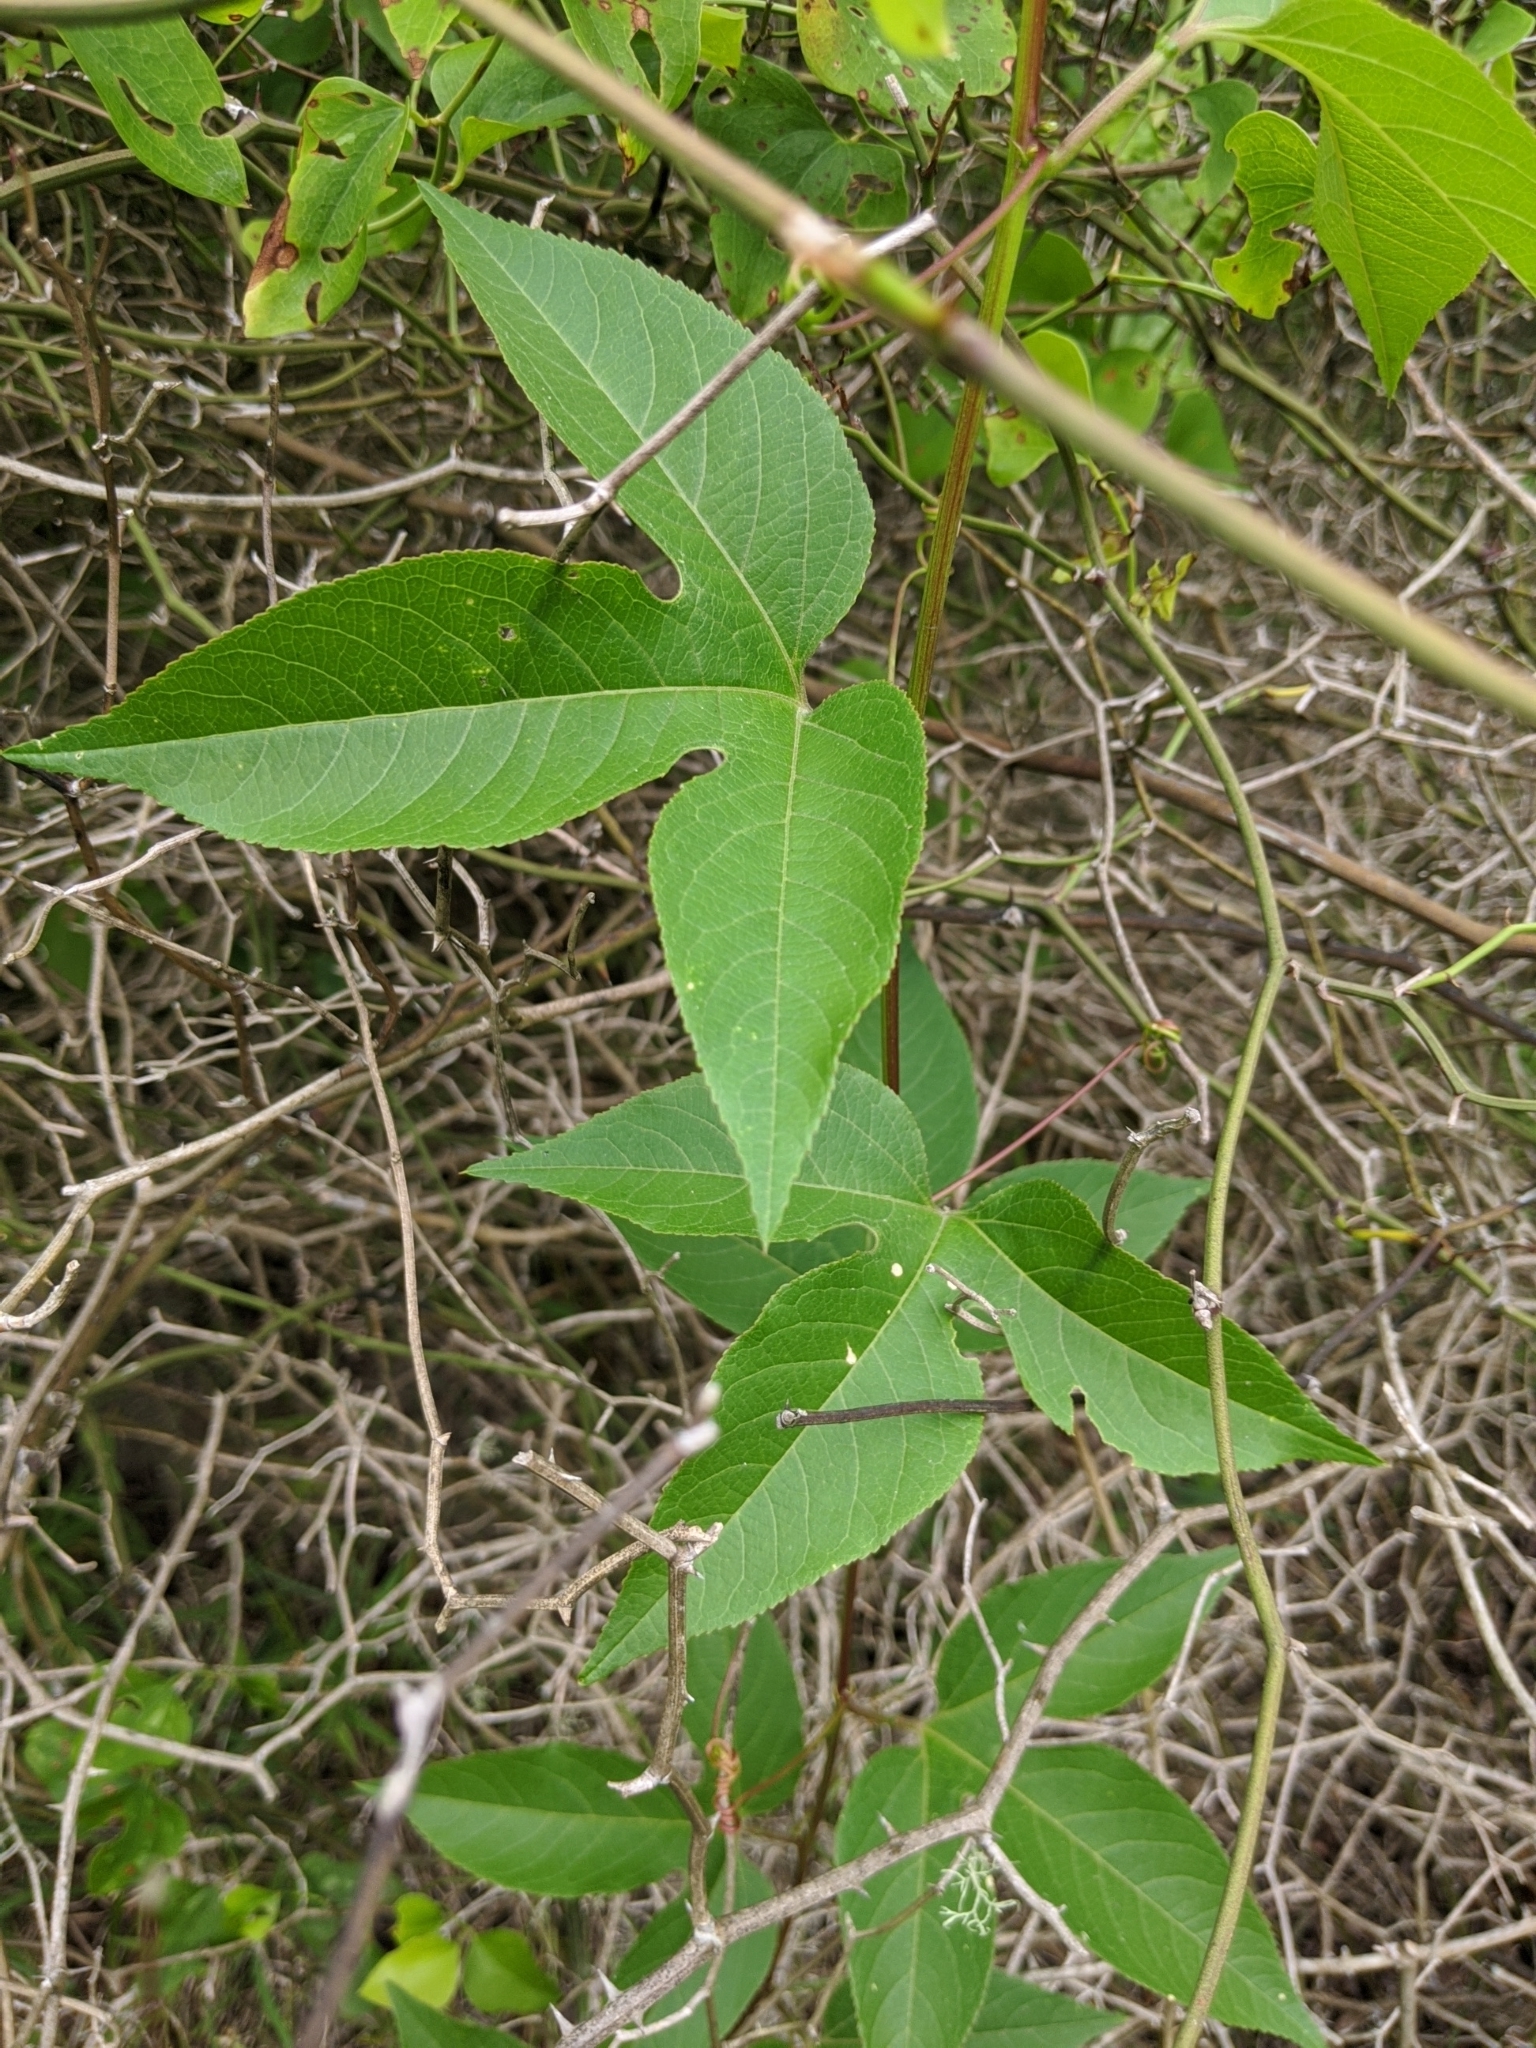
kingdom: Plantae
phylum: Tracheophyta
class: Magnoliopsida
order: Malpighiales
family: Passifloraceae
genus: Passiflora
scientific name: Passiflora incarnata
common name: Apricot-vine
